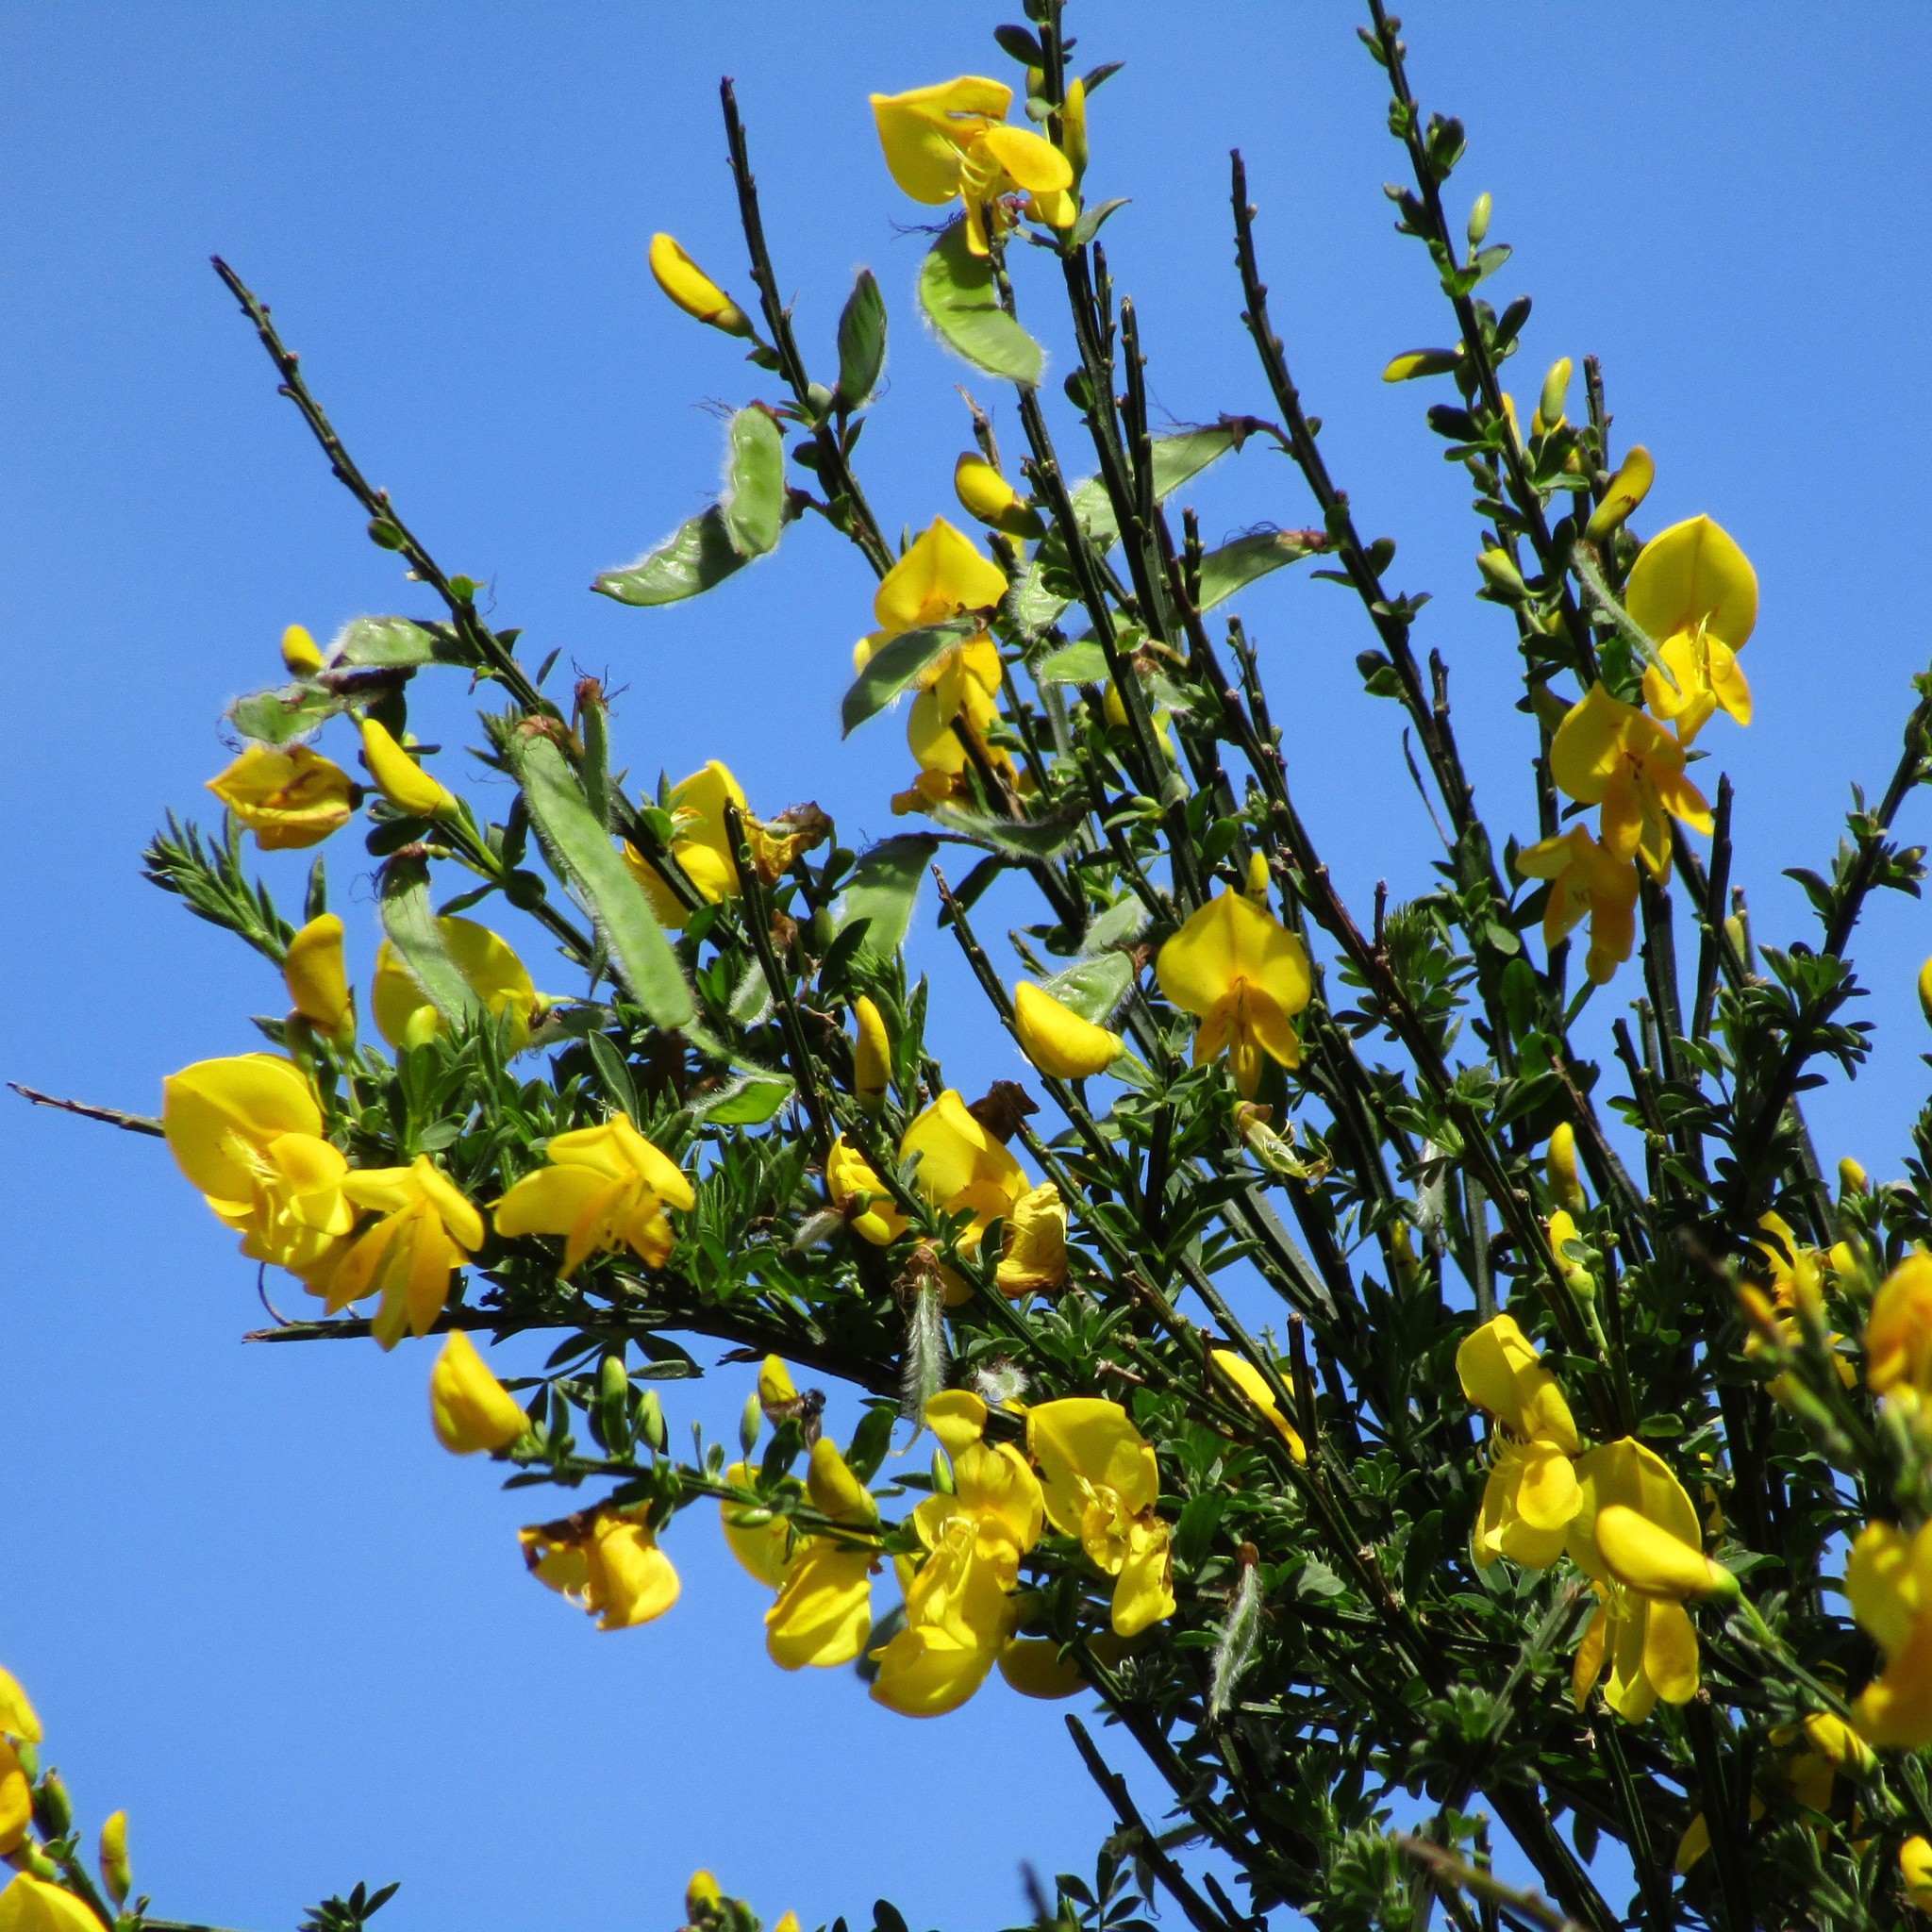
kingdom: Plantae
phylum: Tracheophyta
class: Magnoliopsida
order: Fabales
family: Fabaceae
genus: Cytisus
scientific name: Cytisus scoparius
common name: Scotch broom
